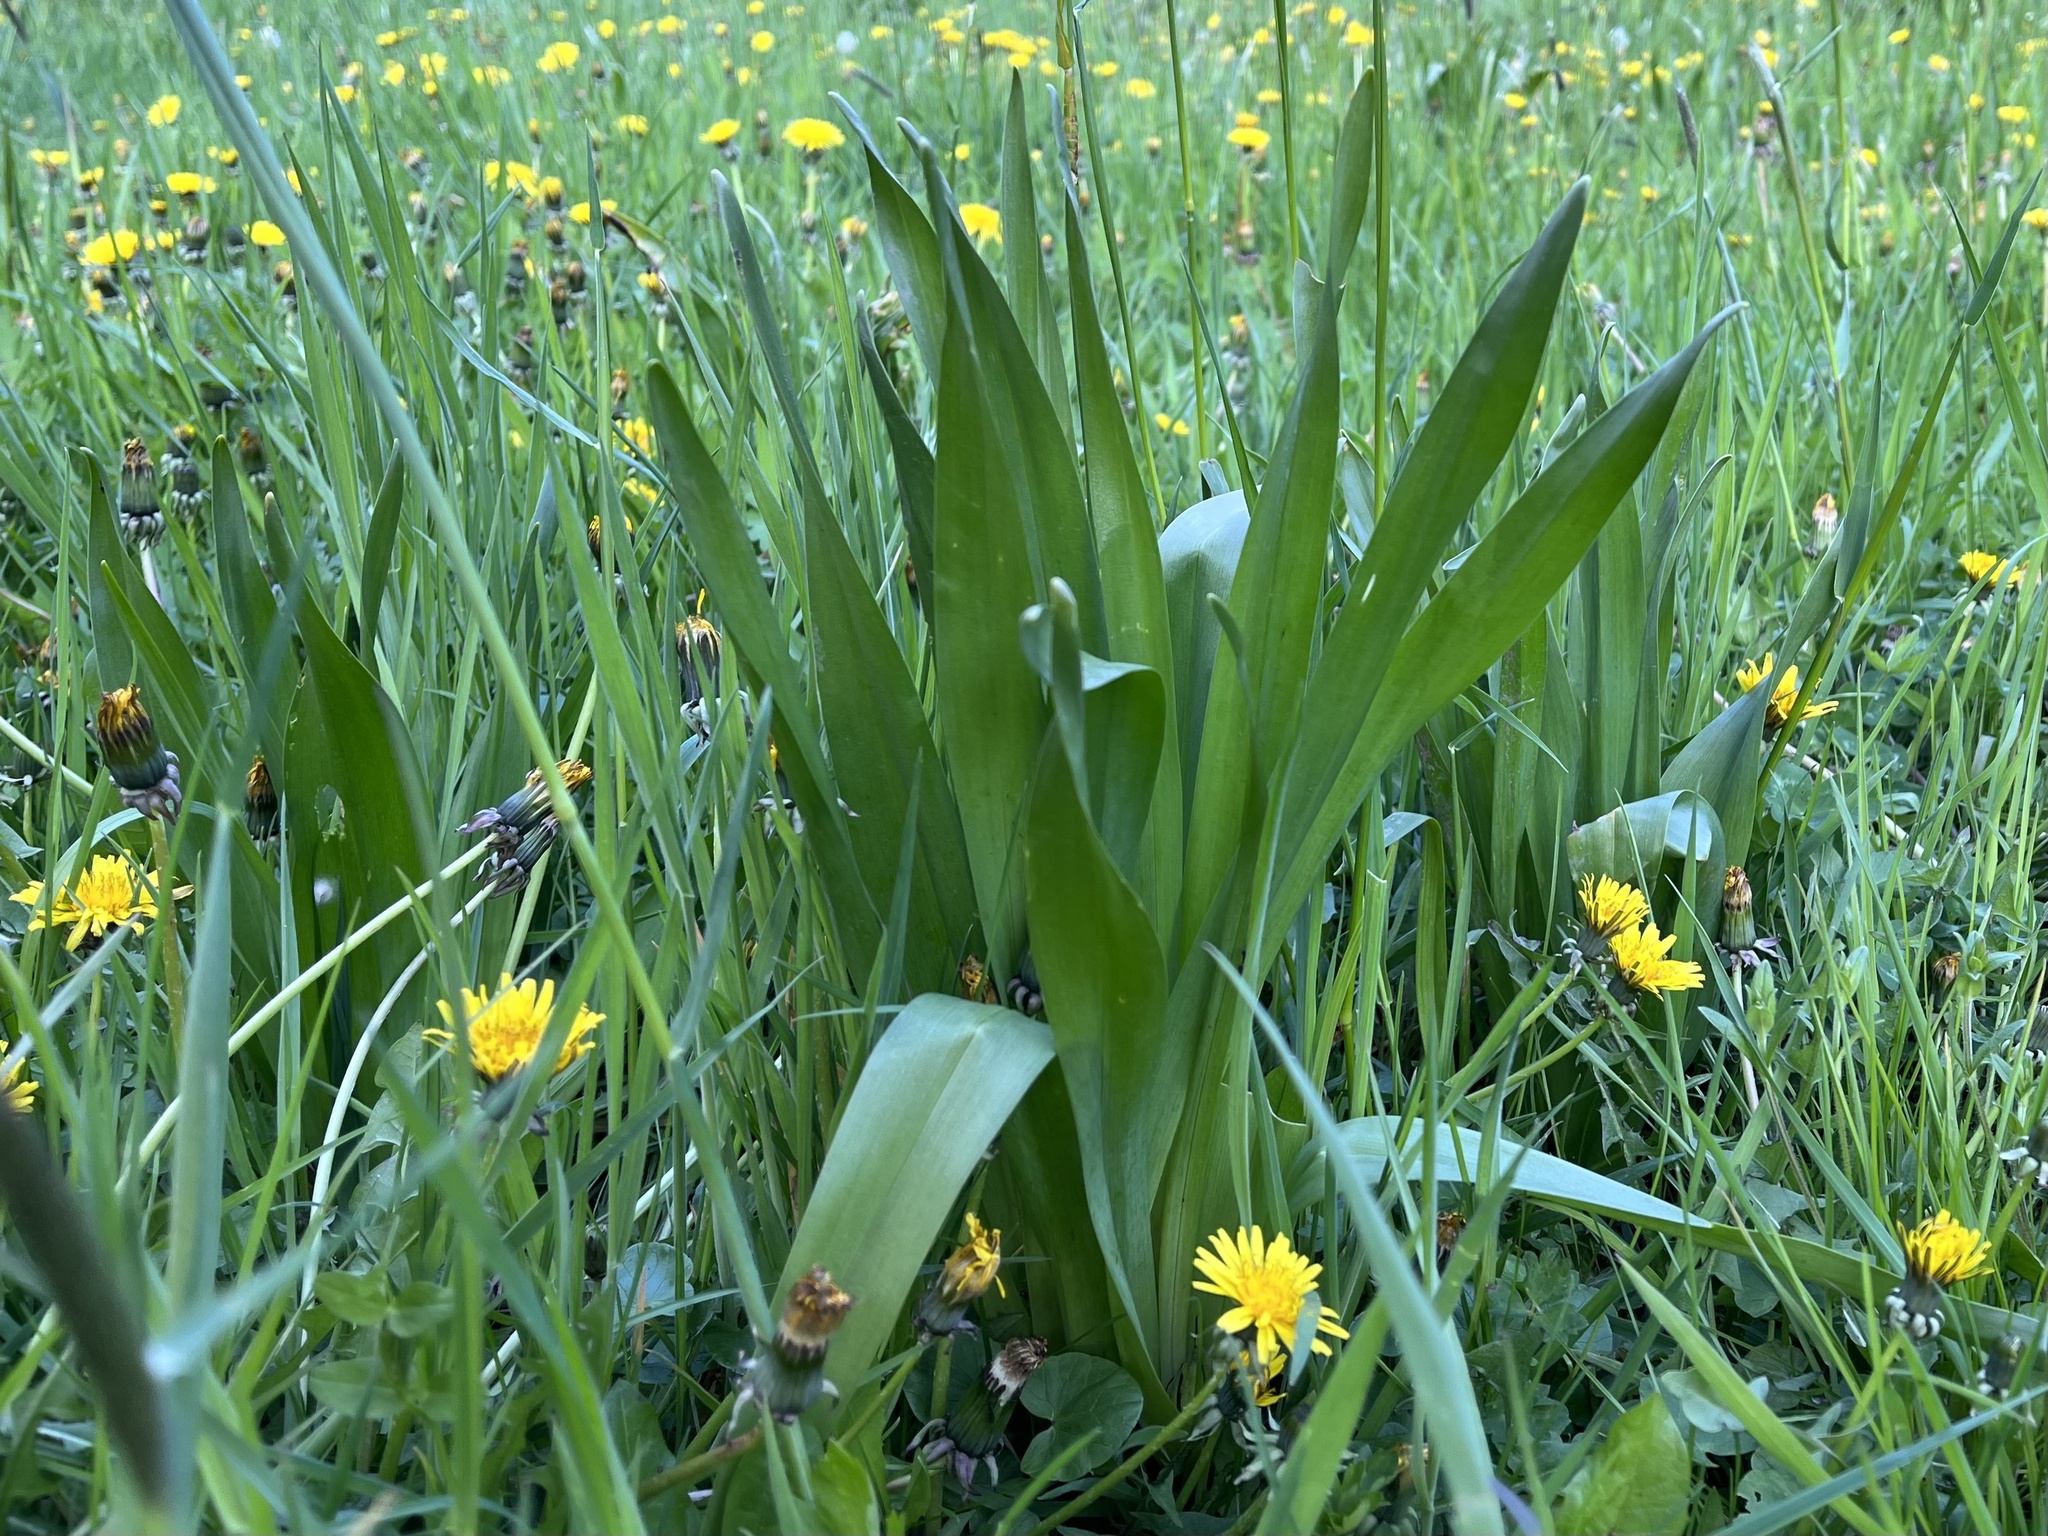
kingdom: Plantae
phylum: Tracheophyta
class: Liliopsida
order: Liliales
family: Colchicaceae
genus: Colchicum
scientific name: Colchicum autumnale
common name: Autumn crocus
